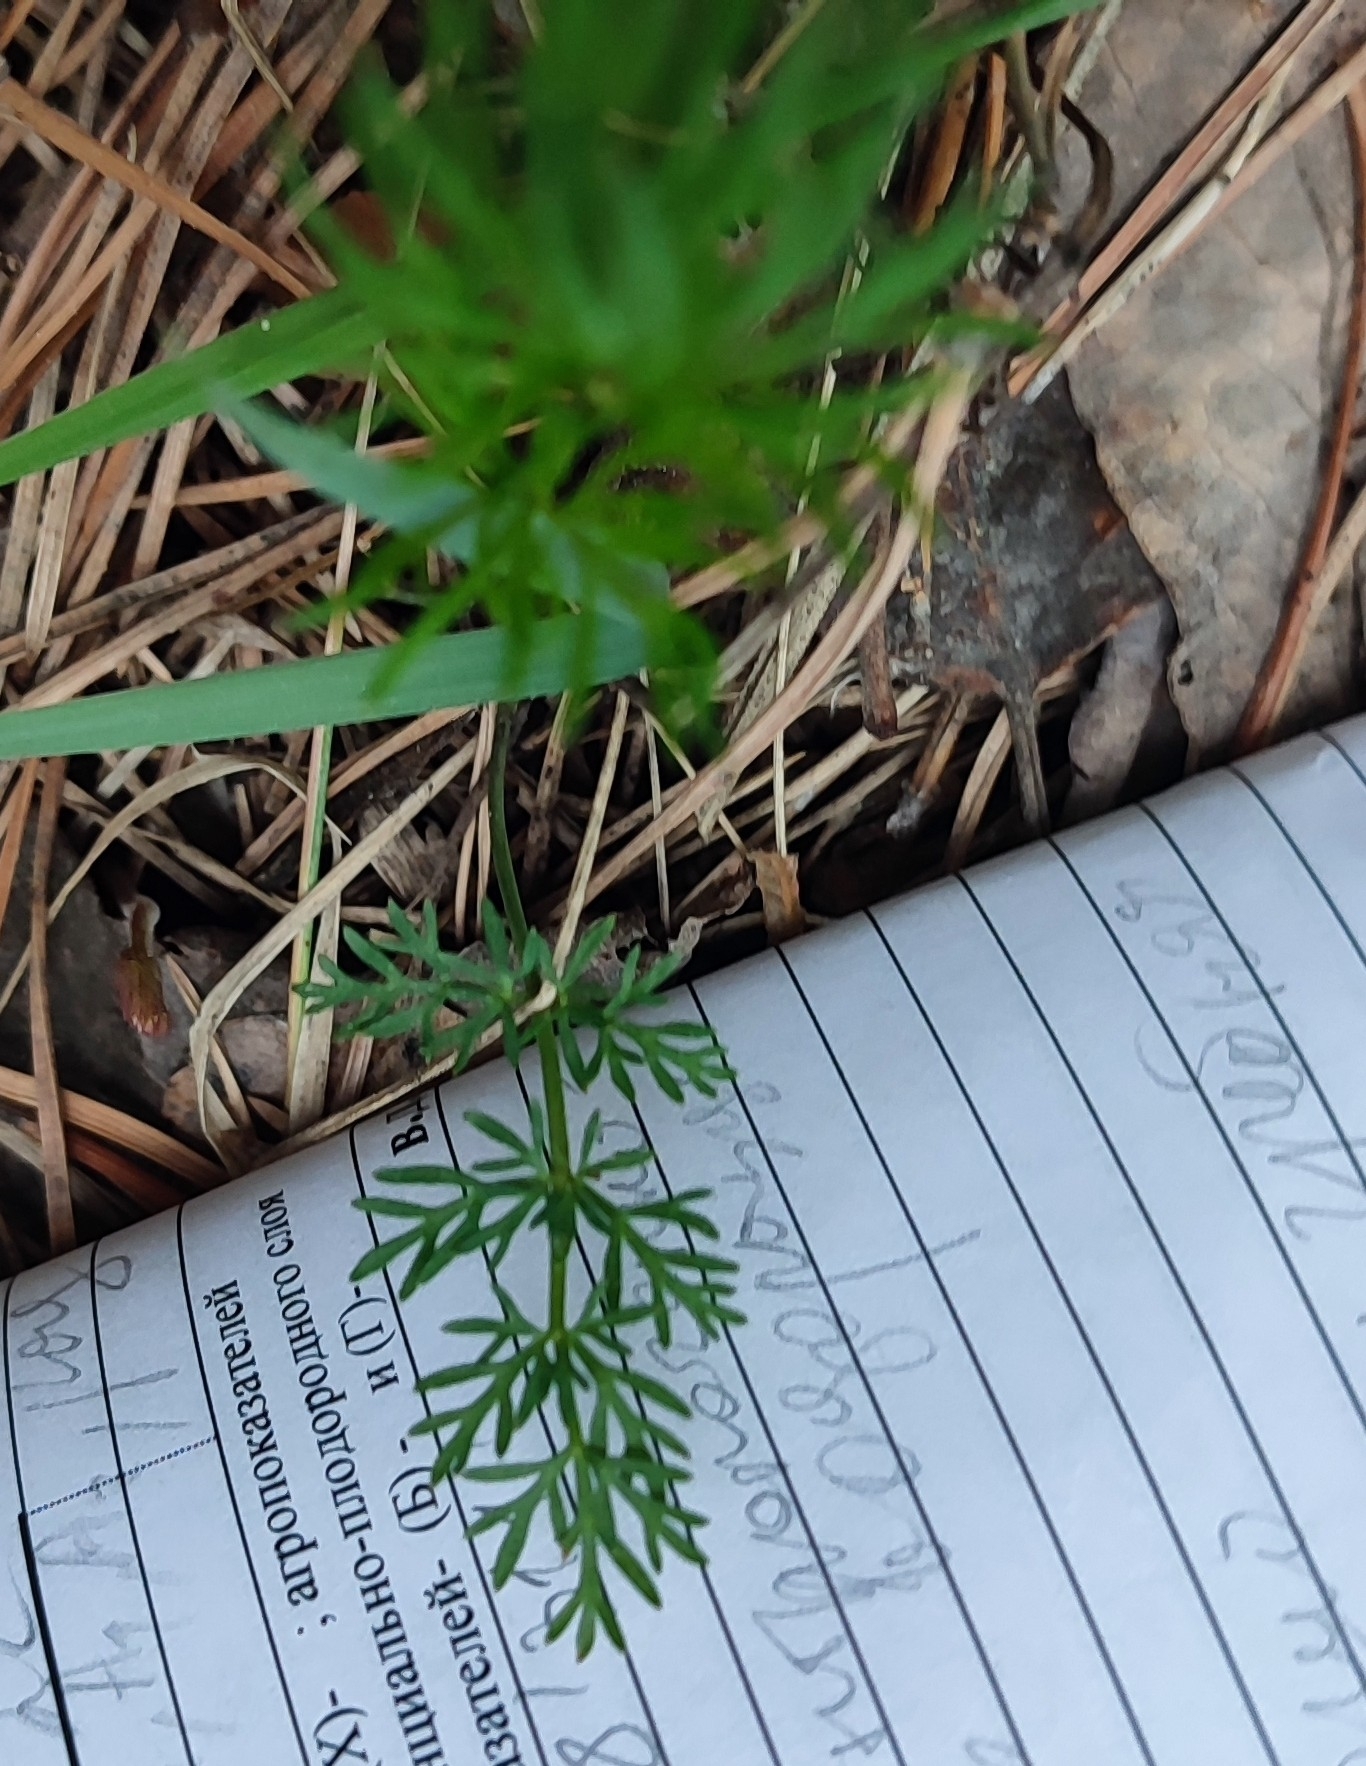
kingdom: Plantae
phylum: Tracheophyta
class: Magnoliopsida
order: Apiales
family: Apiaceae
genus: Kadenia
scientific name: Kadenia dubia
